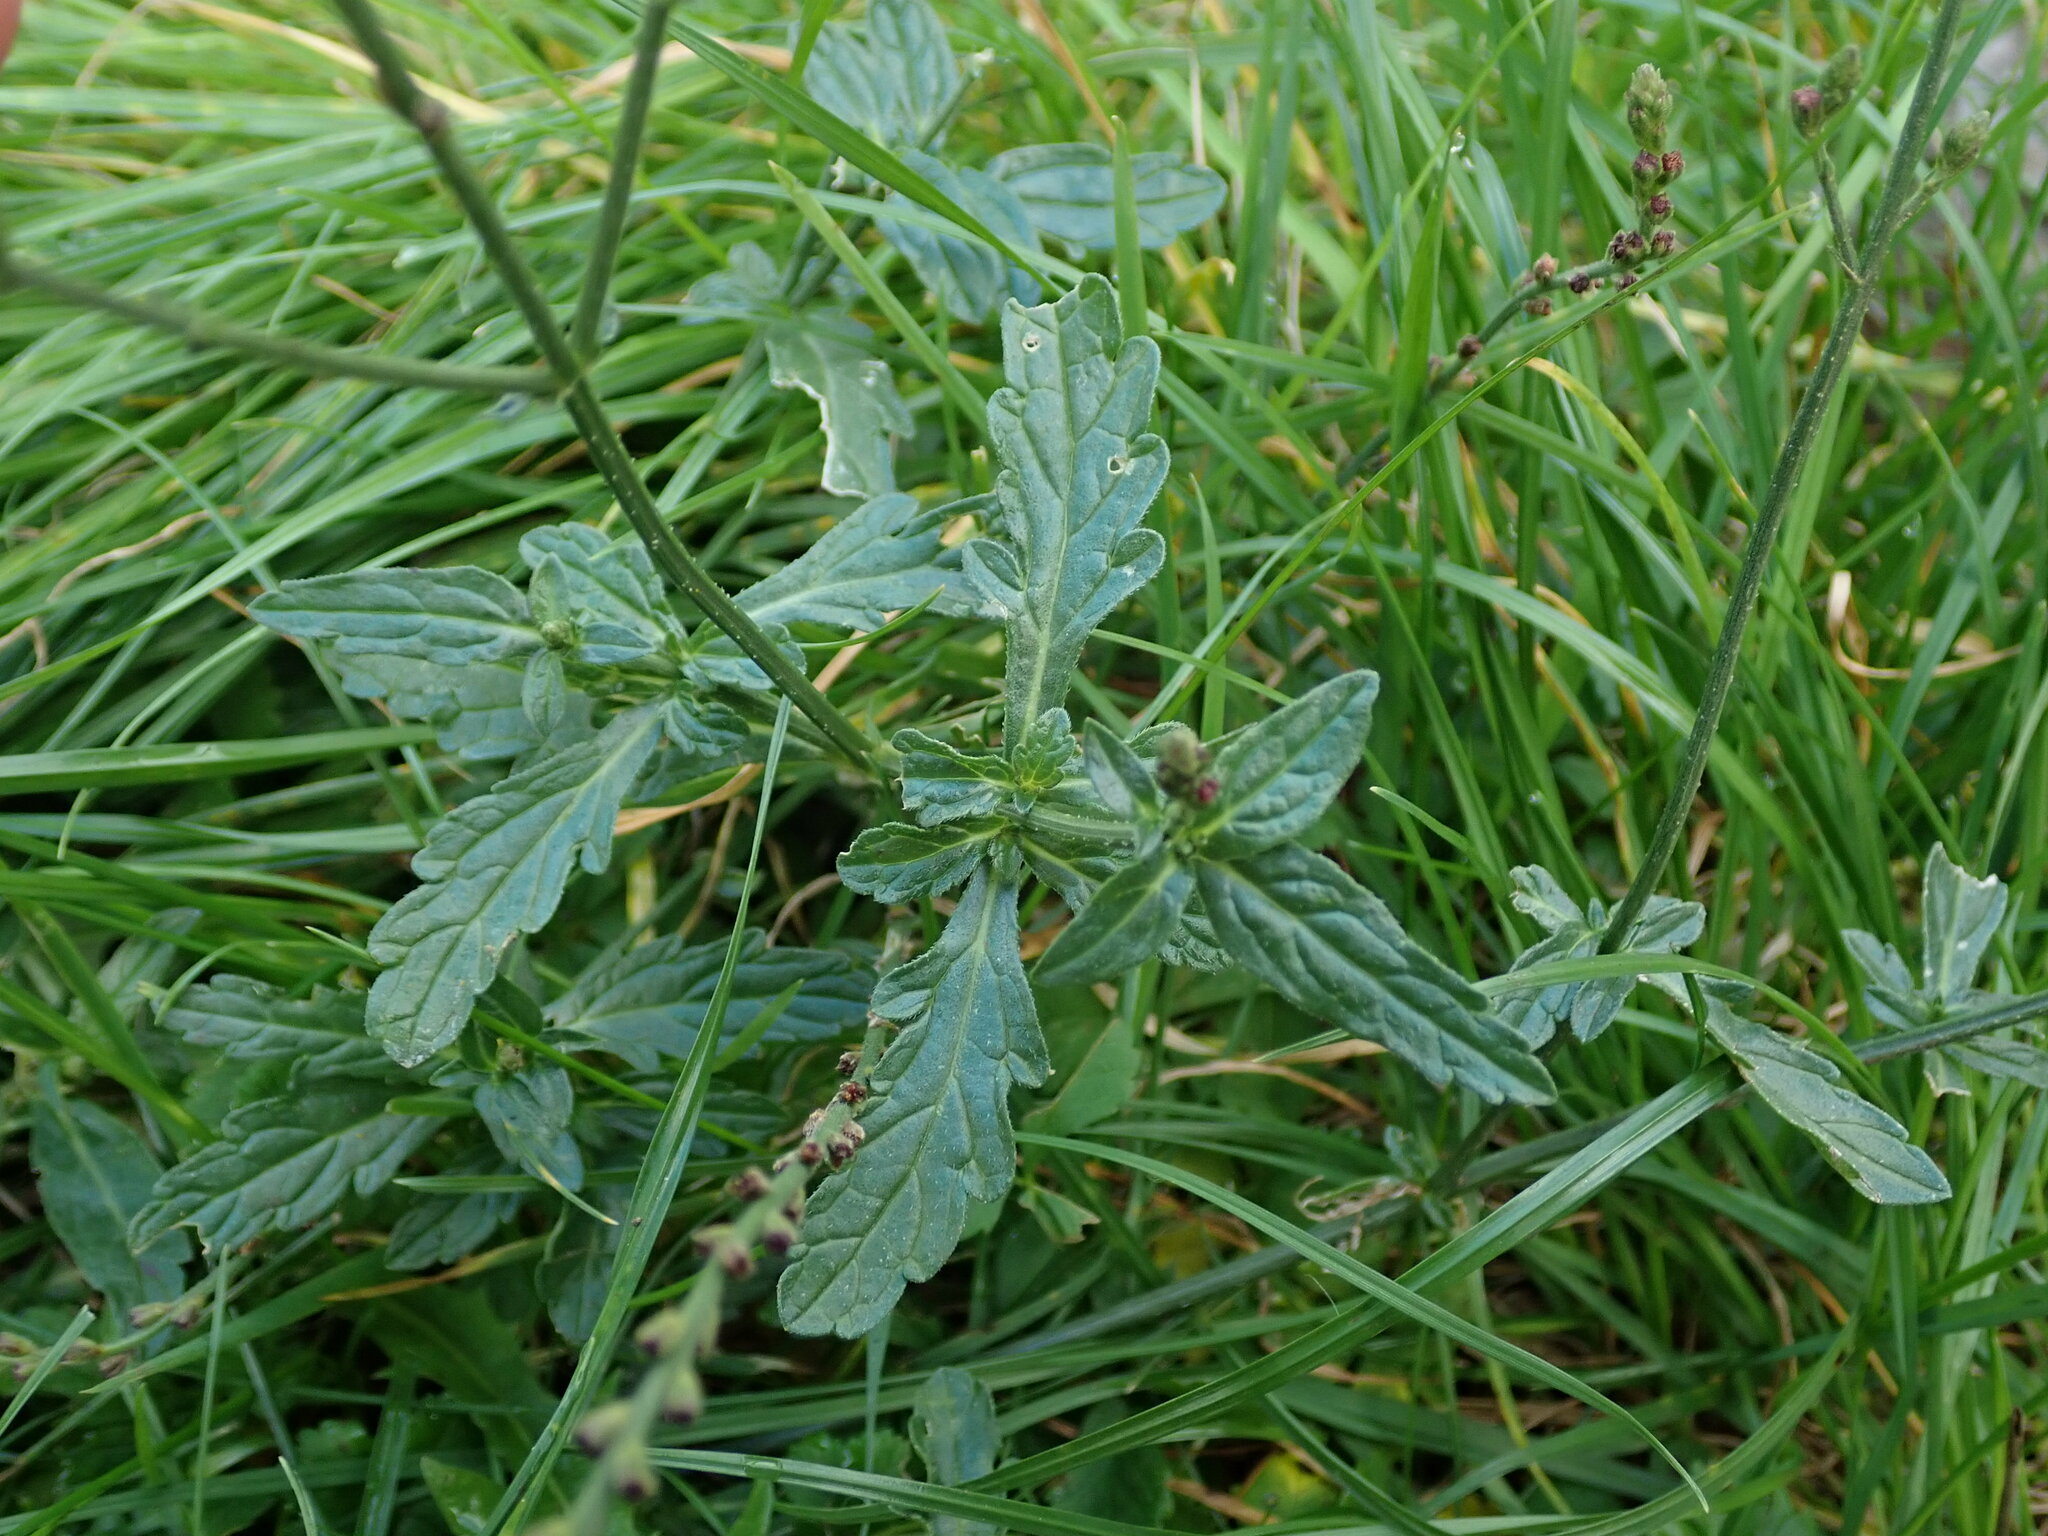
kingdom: Plantae
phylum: Tracheophyta
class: Magnoliopsida
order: Lamiales
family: Verbenaceae
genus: Verbena
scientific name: Verbena officinalis
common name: Vervain
